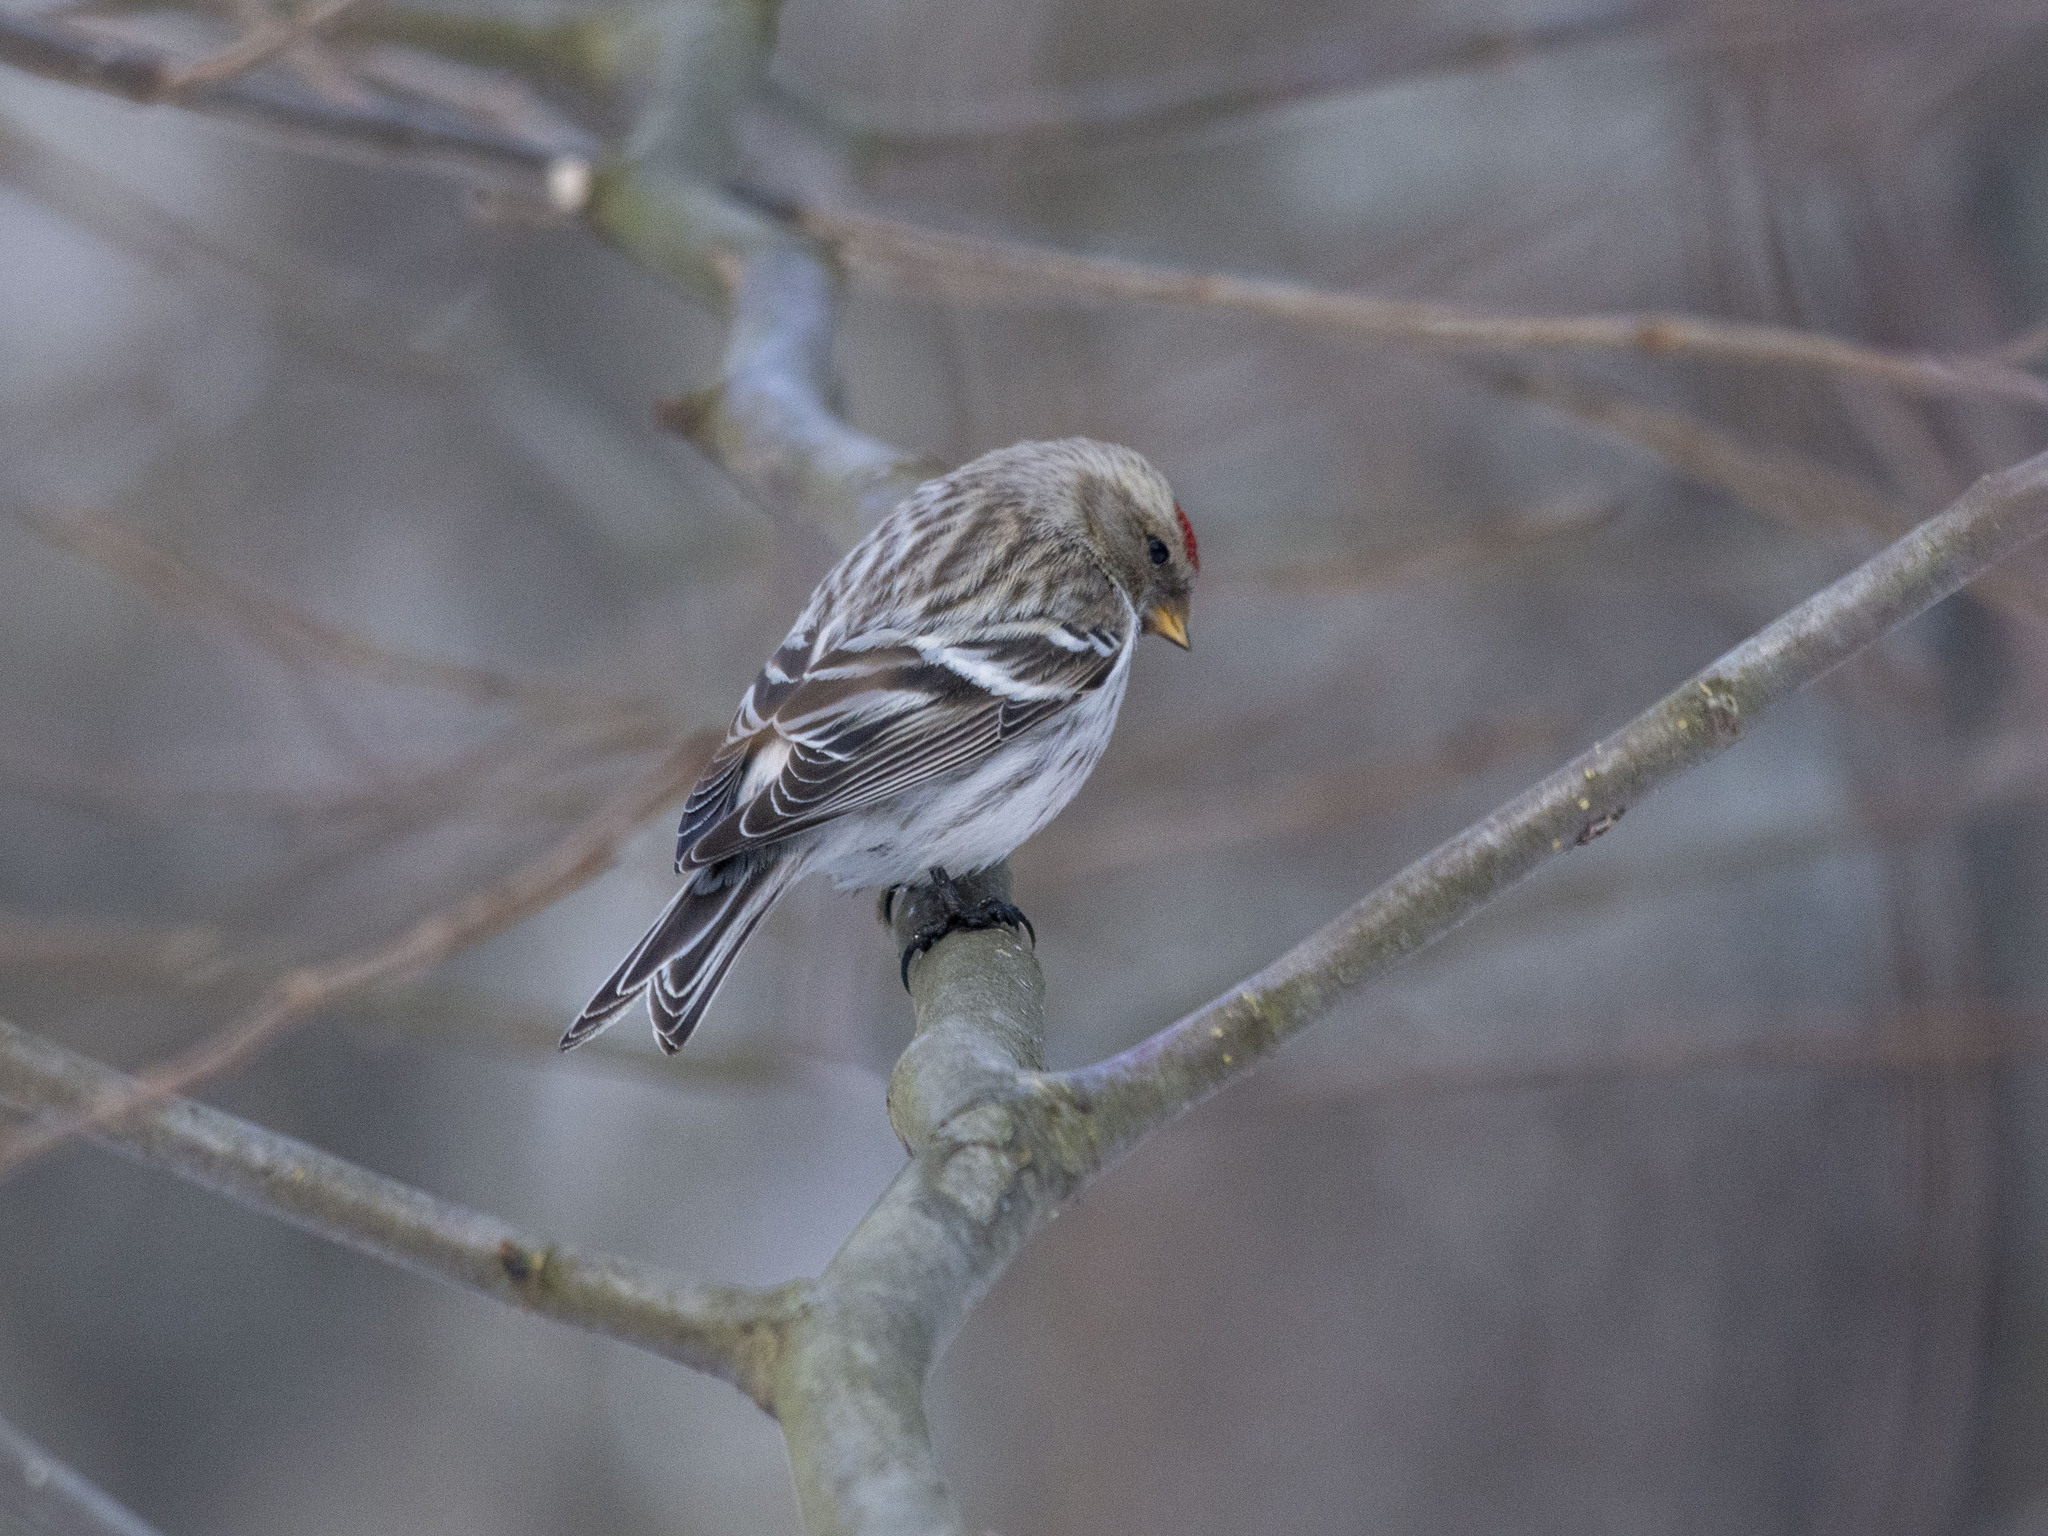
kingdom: Animalia
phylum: Chordata
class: Aves
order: Passeriformes
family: Fringillidae
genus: Acanthis
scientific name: Acanthis flammea
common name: Common redpoll
